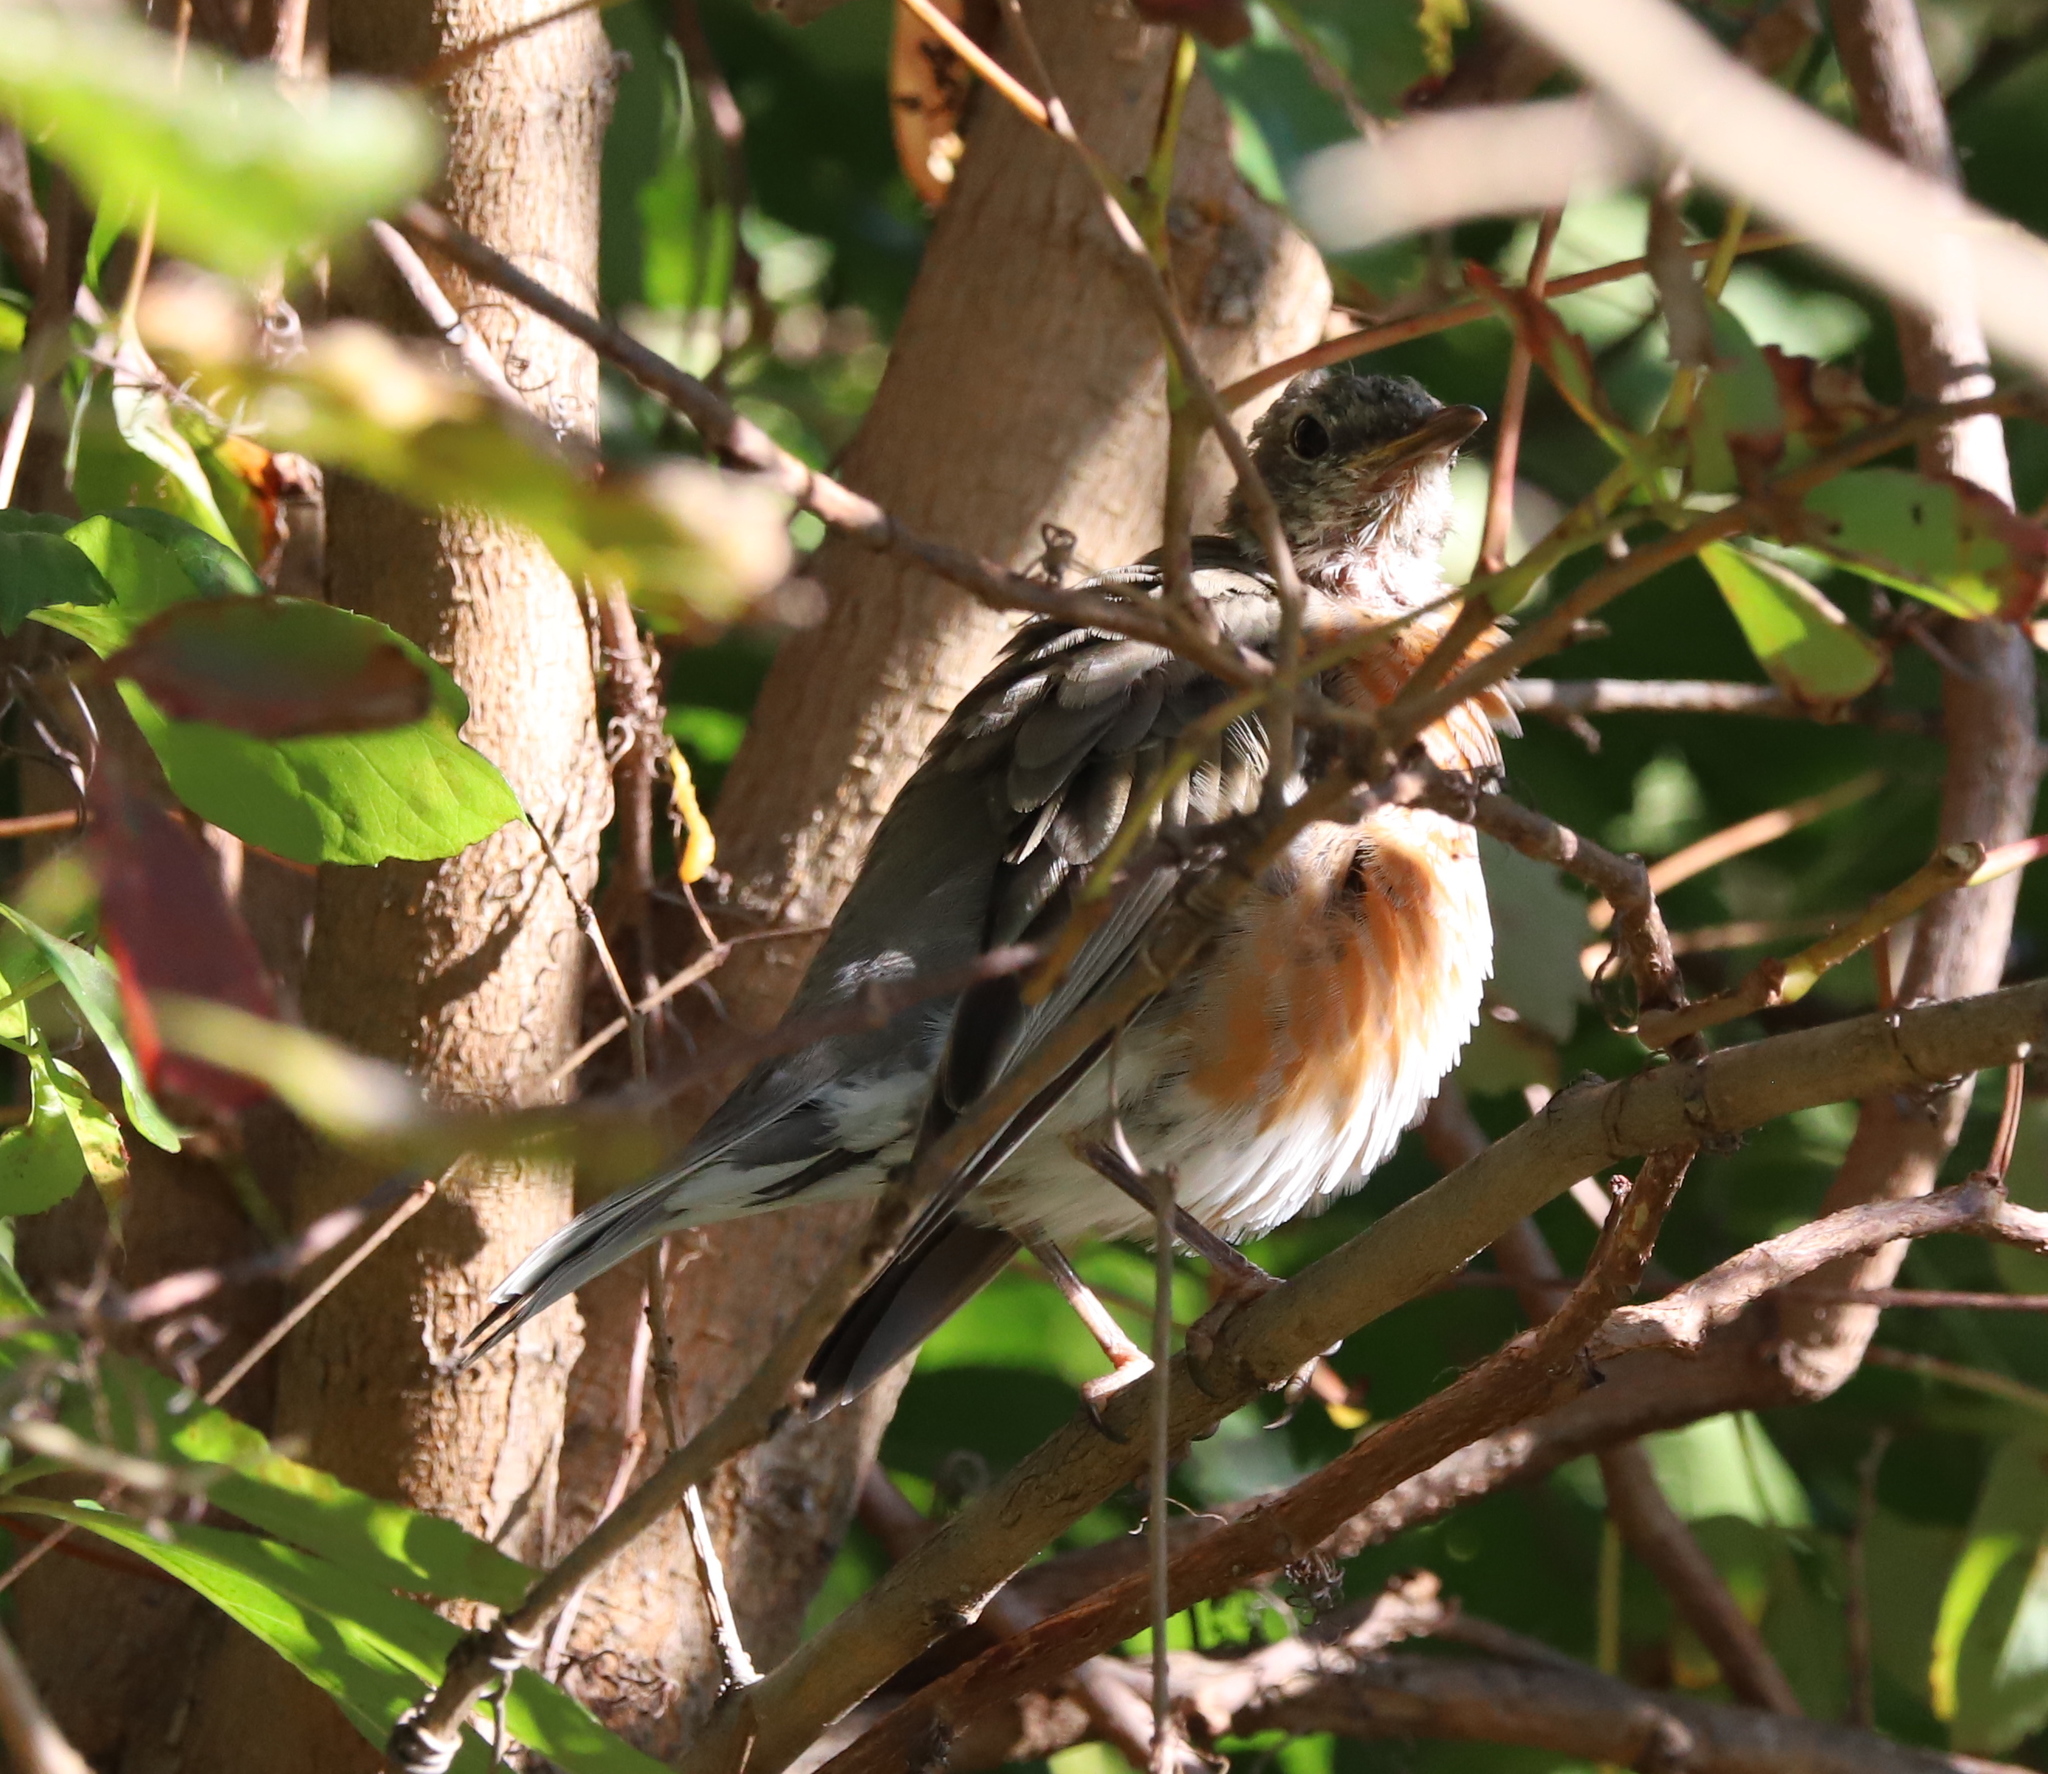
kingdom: Animalia
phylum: Chordata
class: Aves
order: Passeriformes
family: Turdidae
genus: Turdus
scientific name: Turdus migratorius
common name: American robin
